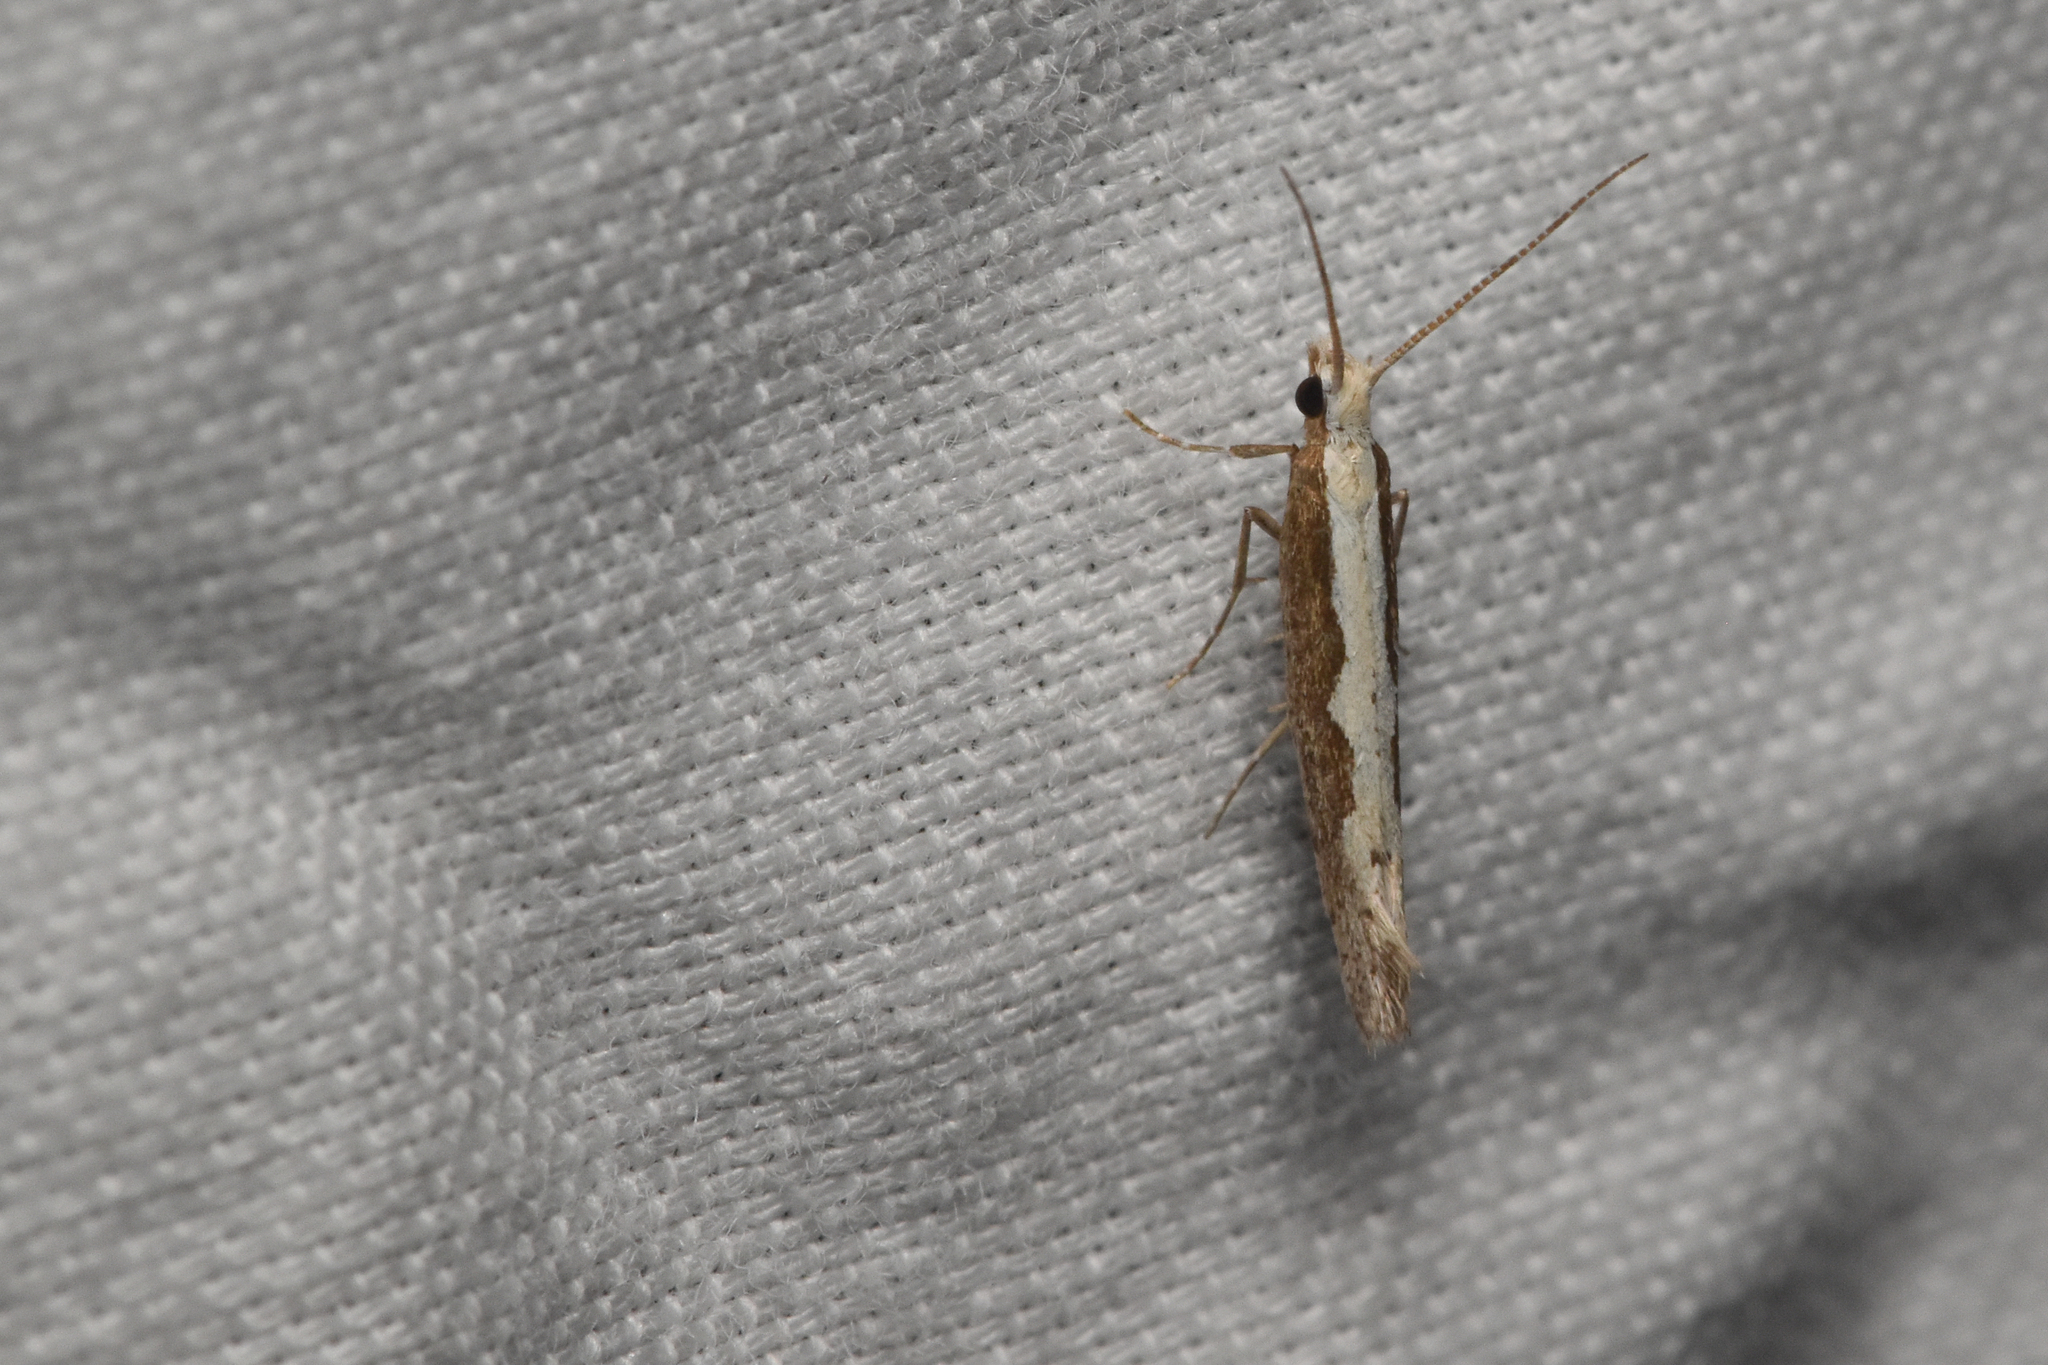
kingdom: Animalia
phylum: Arthropoda
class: Insecta
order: Lepidoptera
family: Plutellidae
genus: Plutella
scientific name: Plutella xylostella
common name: Diamond-back moth
